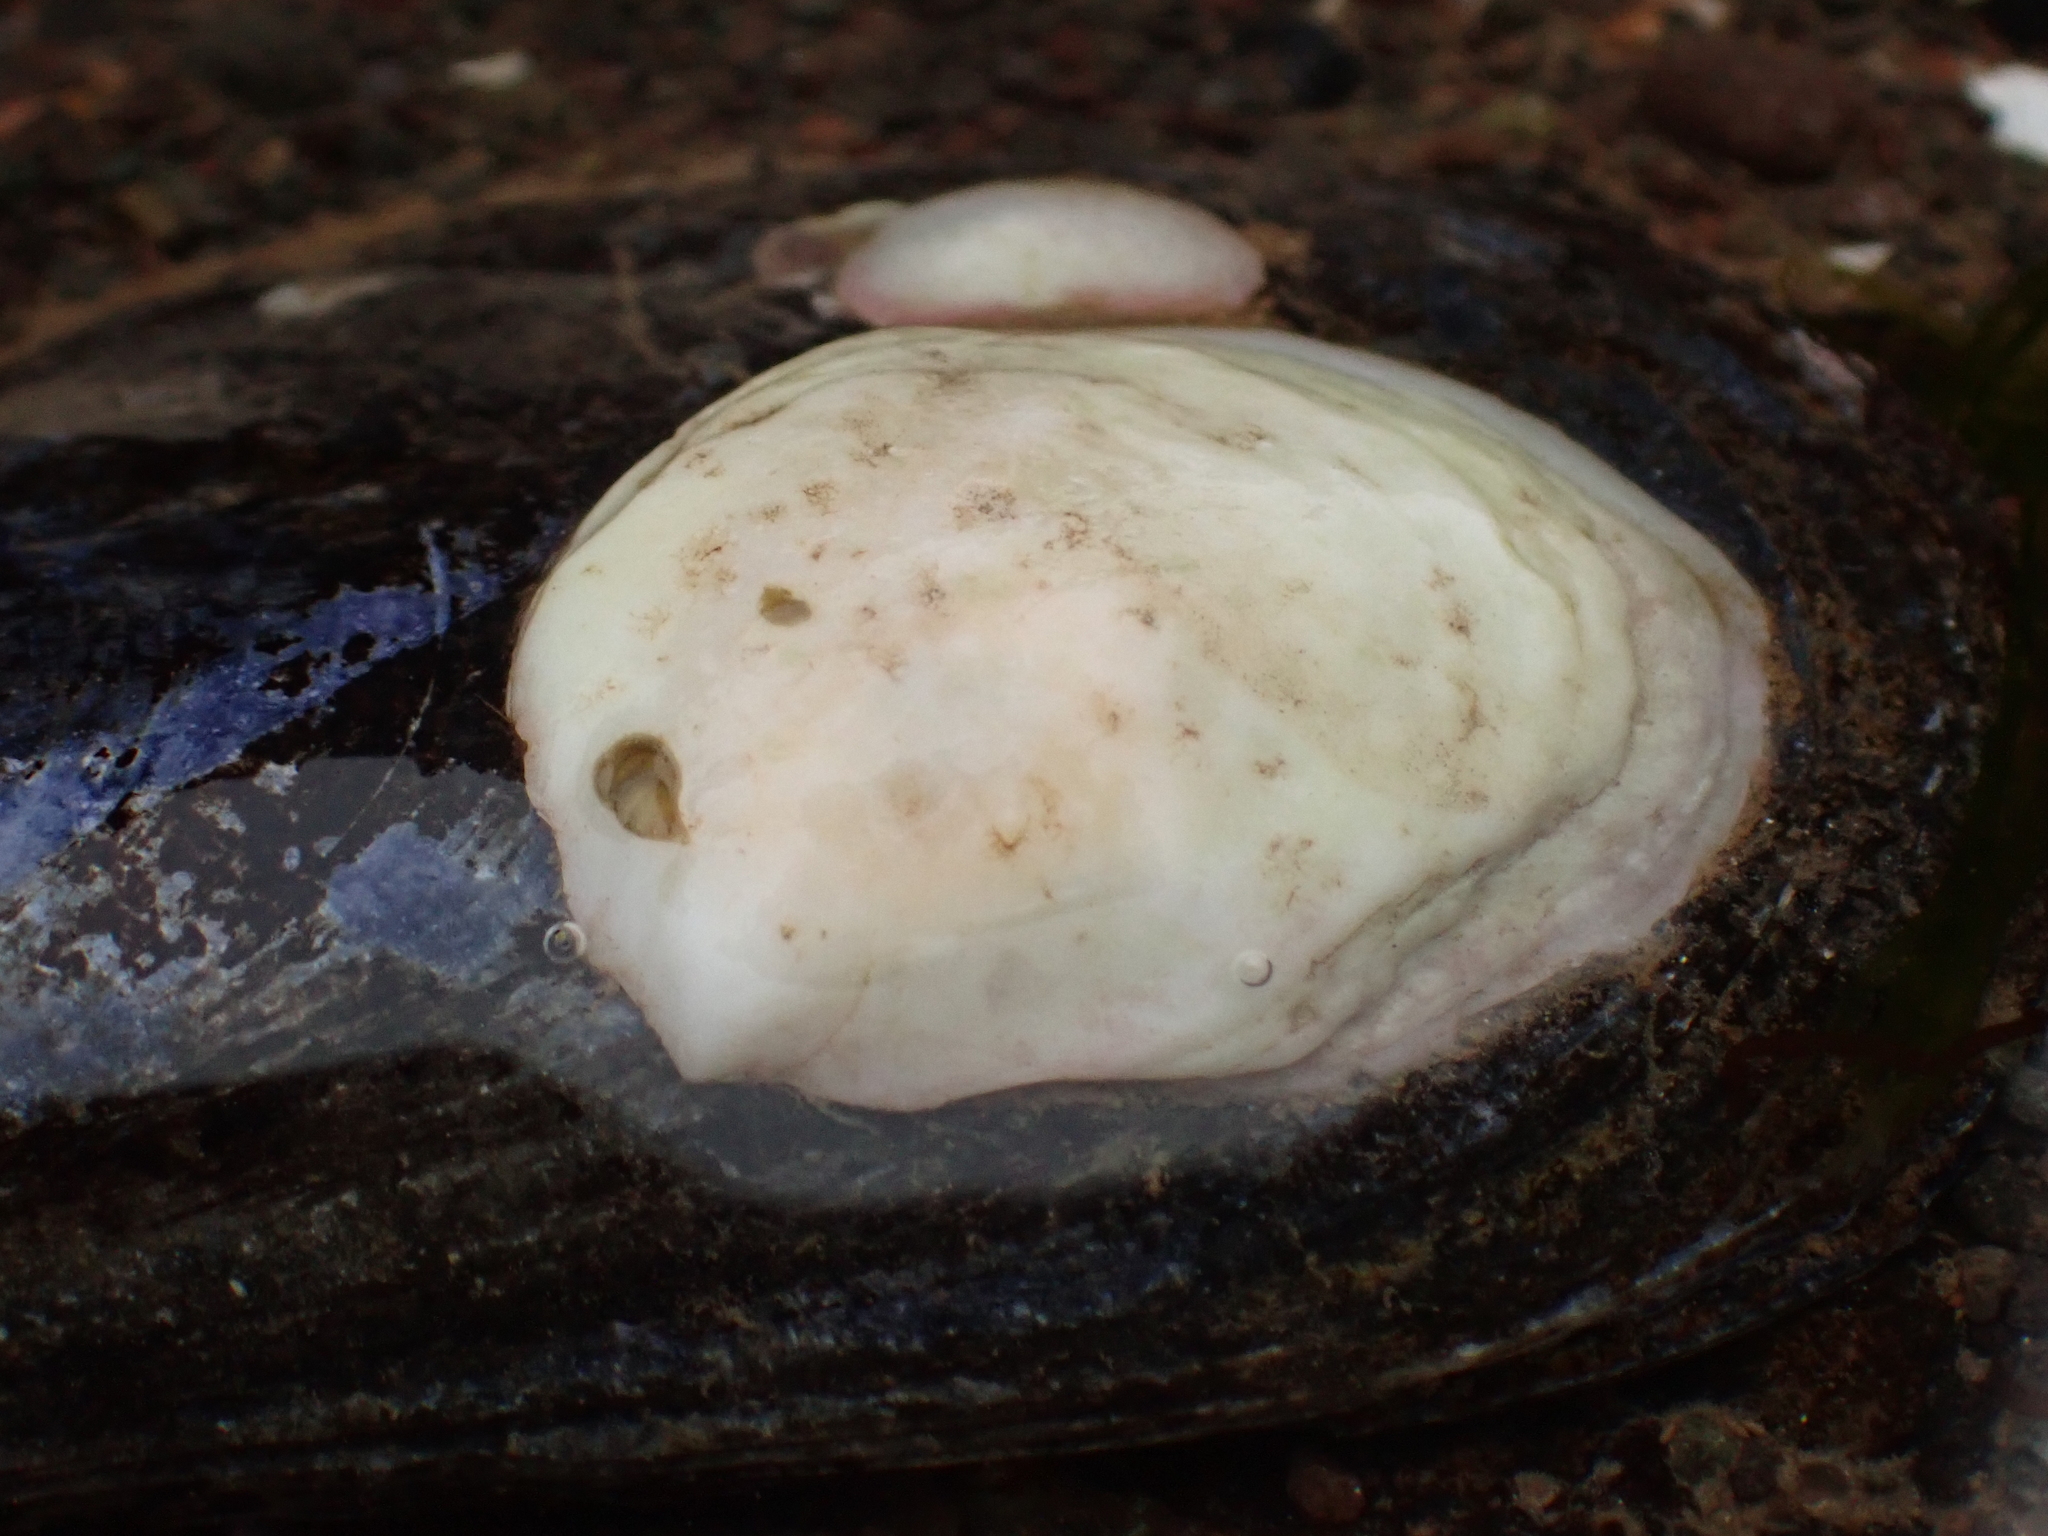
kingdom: Animalia
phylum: Mollusca
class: Gastropoda
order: Littorinimorpha
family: Calyptraeidae
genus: Crepidula
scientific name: Crepidula plana
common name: Eastern white slippersnail
